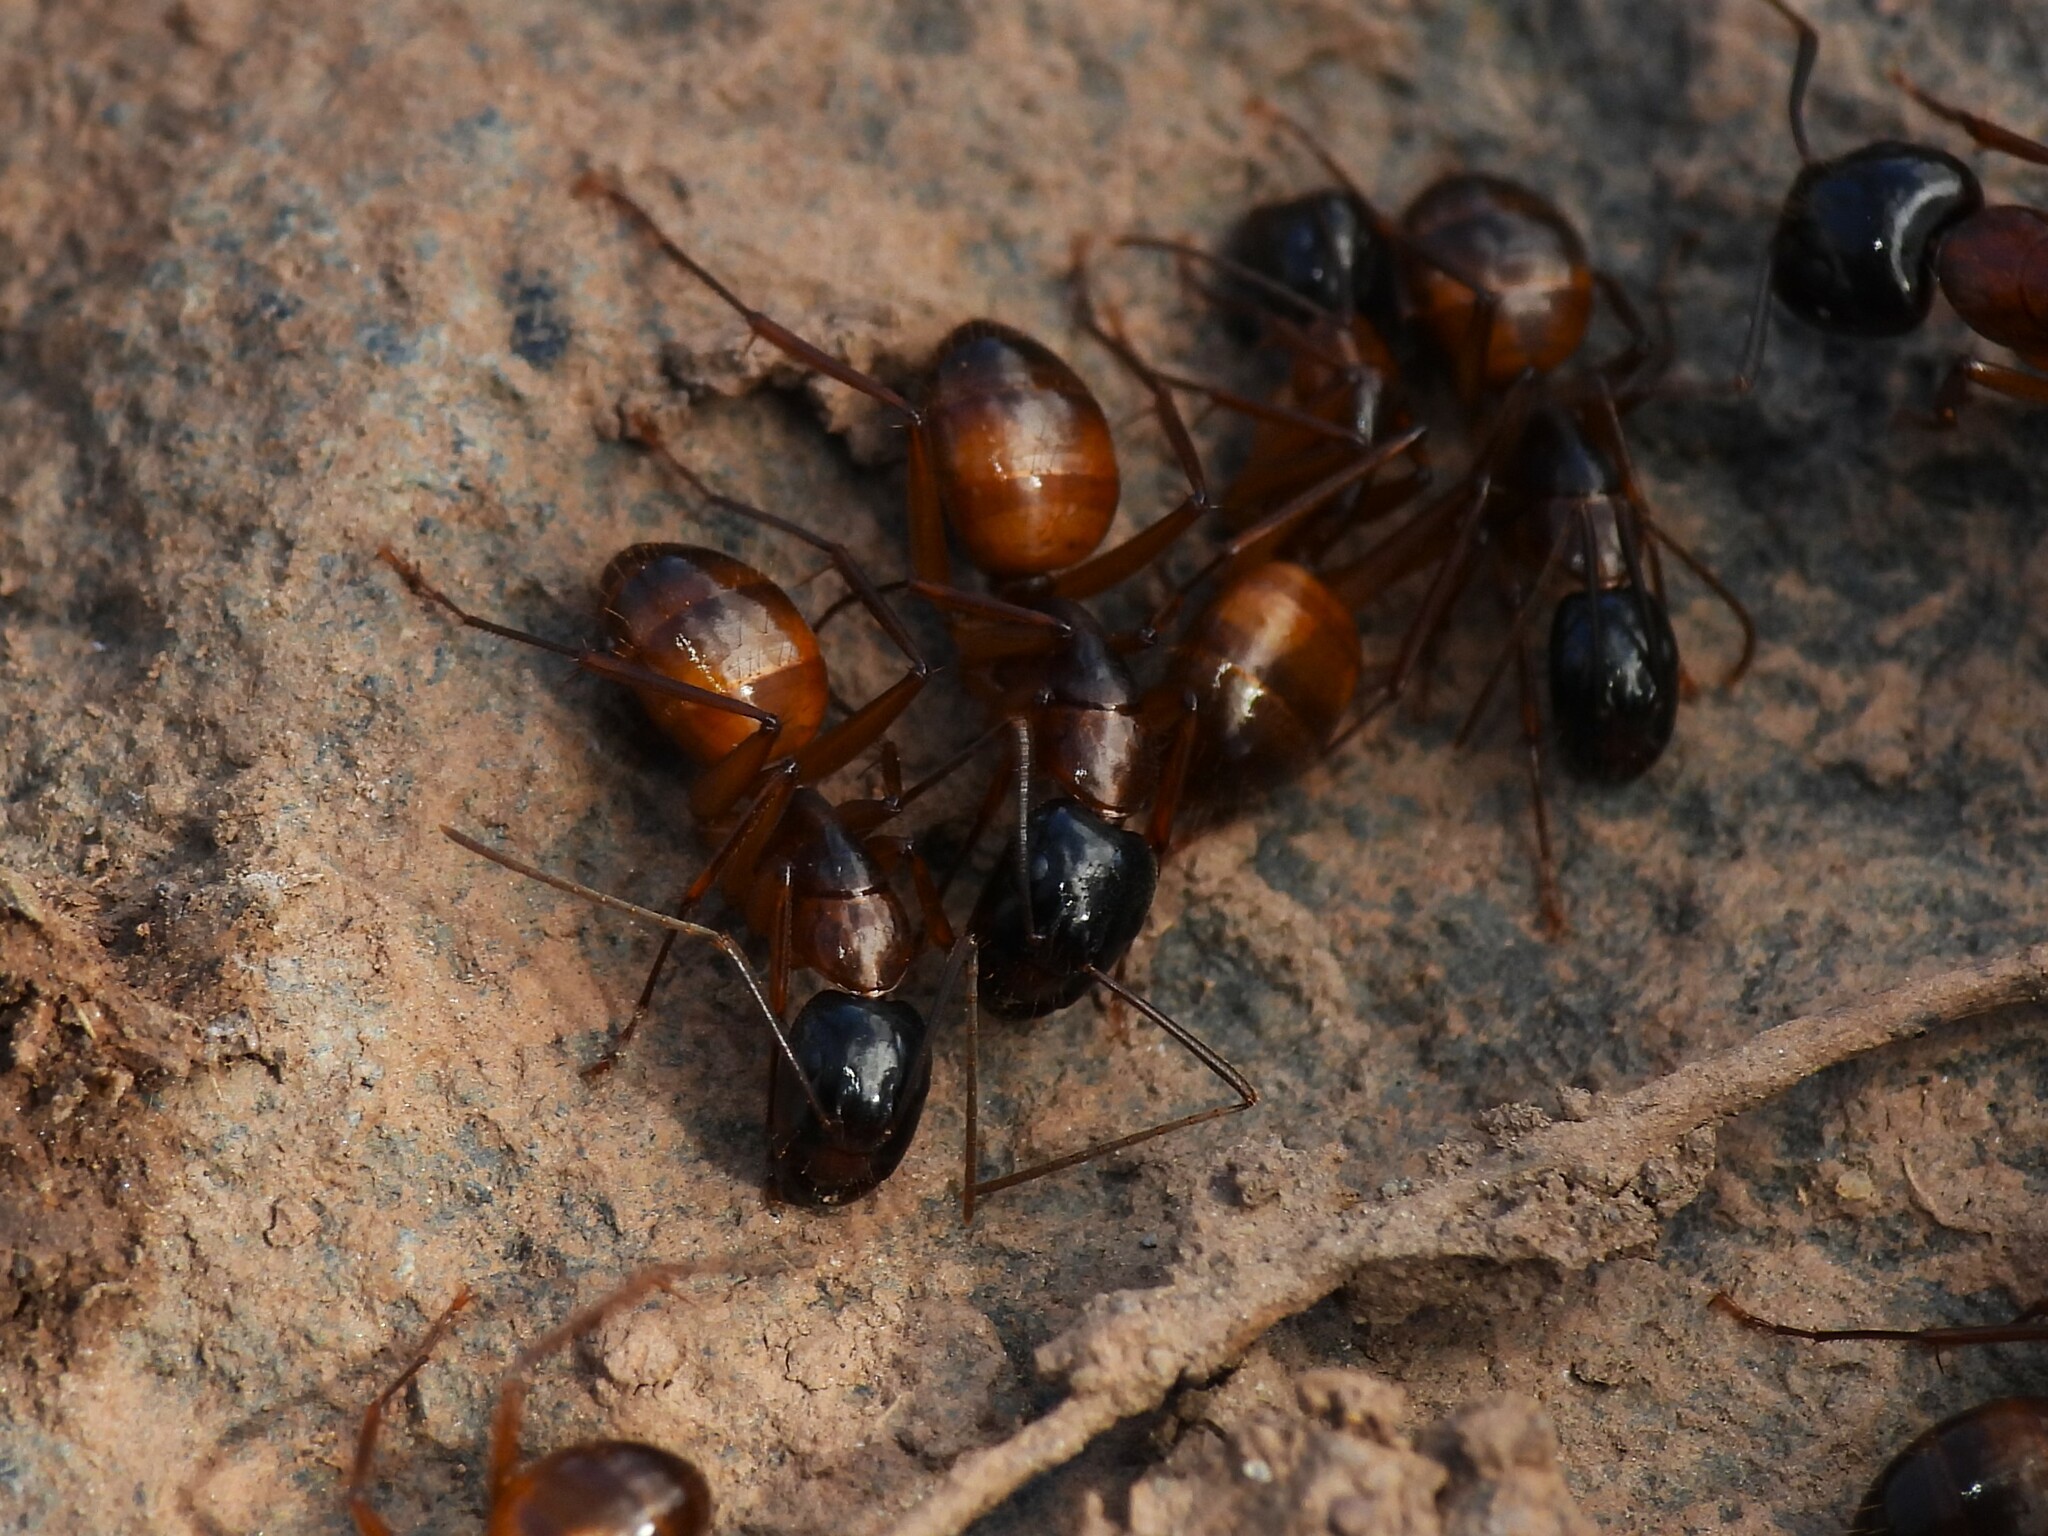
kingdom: Animalia
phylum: Arthropoda
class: Insecta
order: Hymenoptera
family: Formicidae
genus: Camponotus
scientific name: Camponotus americanus
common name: American carpenter ant
